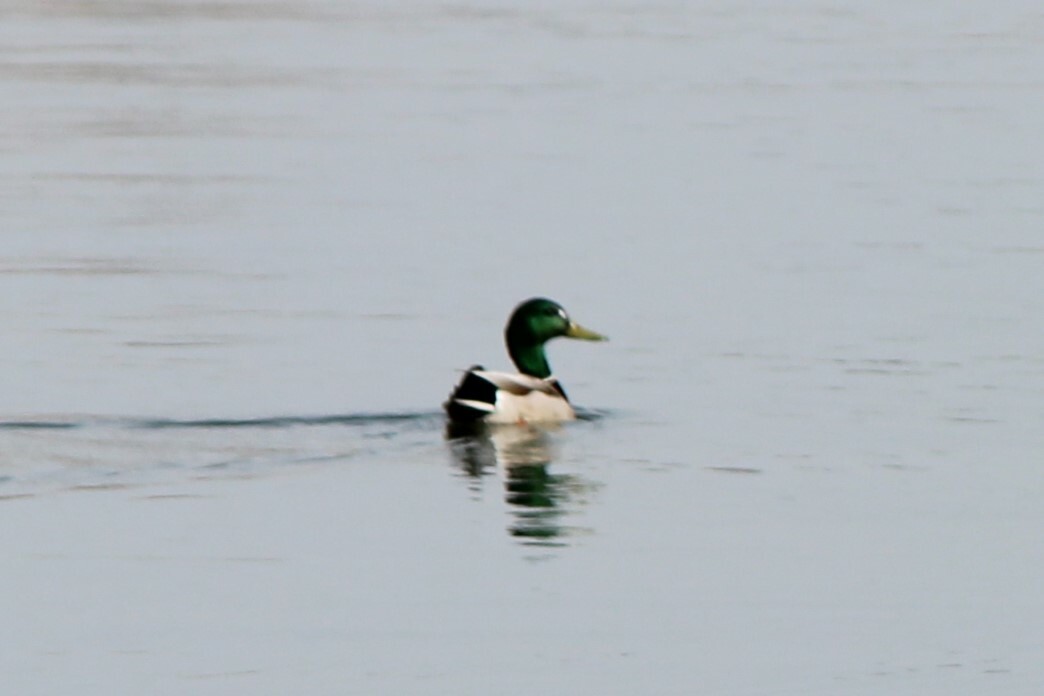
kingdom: Animalia
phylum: Chordata
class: Aves
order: Anseriformes
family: Anatidae
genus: Anas
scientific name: Anas platyrhynchos
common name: Mallard
